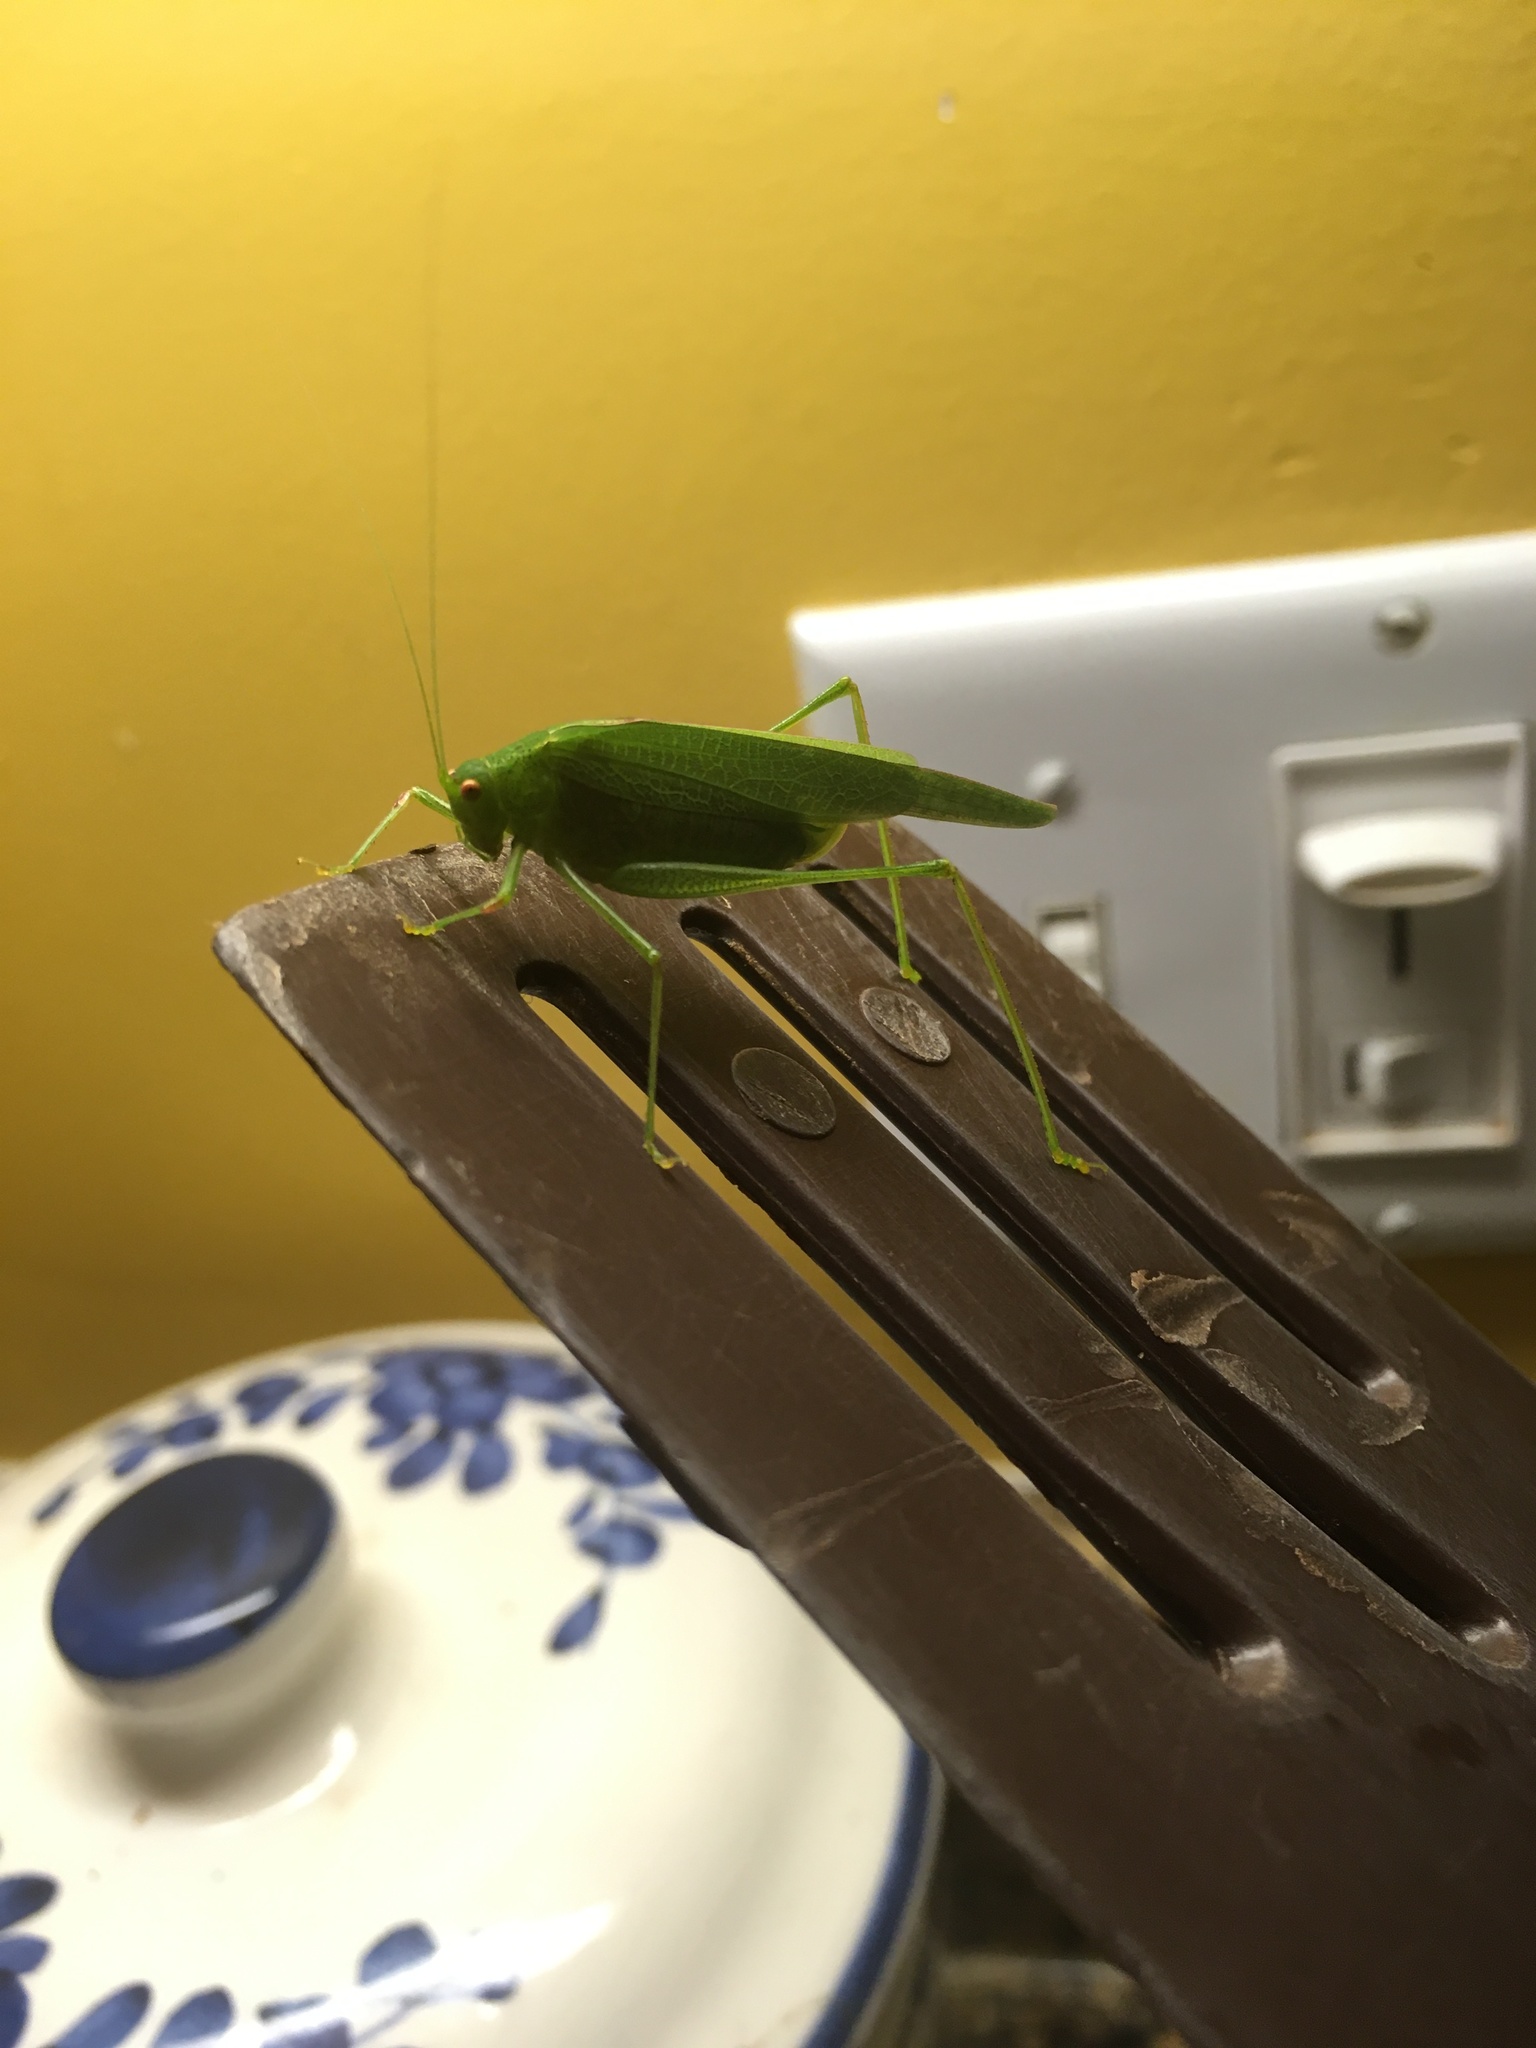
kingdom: Animalia
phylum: Arthropoda
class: Insecta
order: Orthoptera
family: Tettigoniidae
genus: Phaneroptera
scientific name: Phaneroptera nana
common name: Southern sickle bush-cricket
